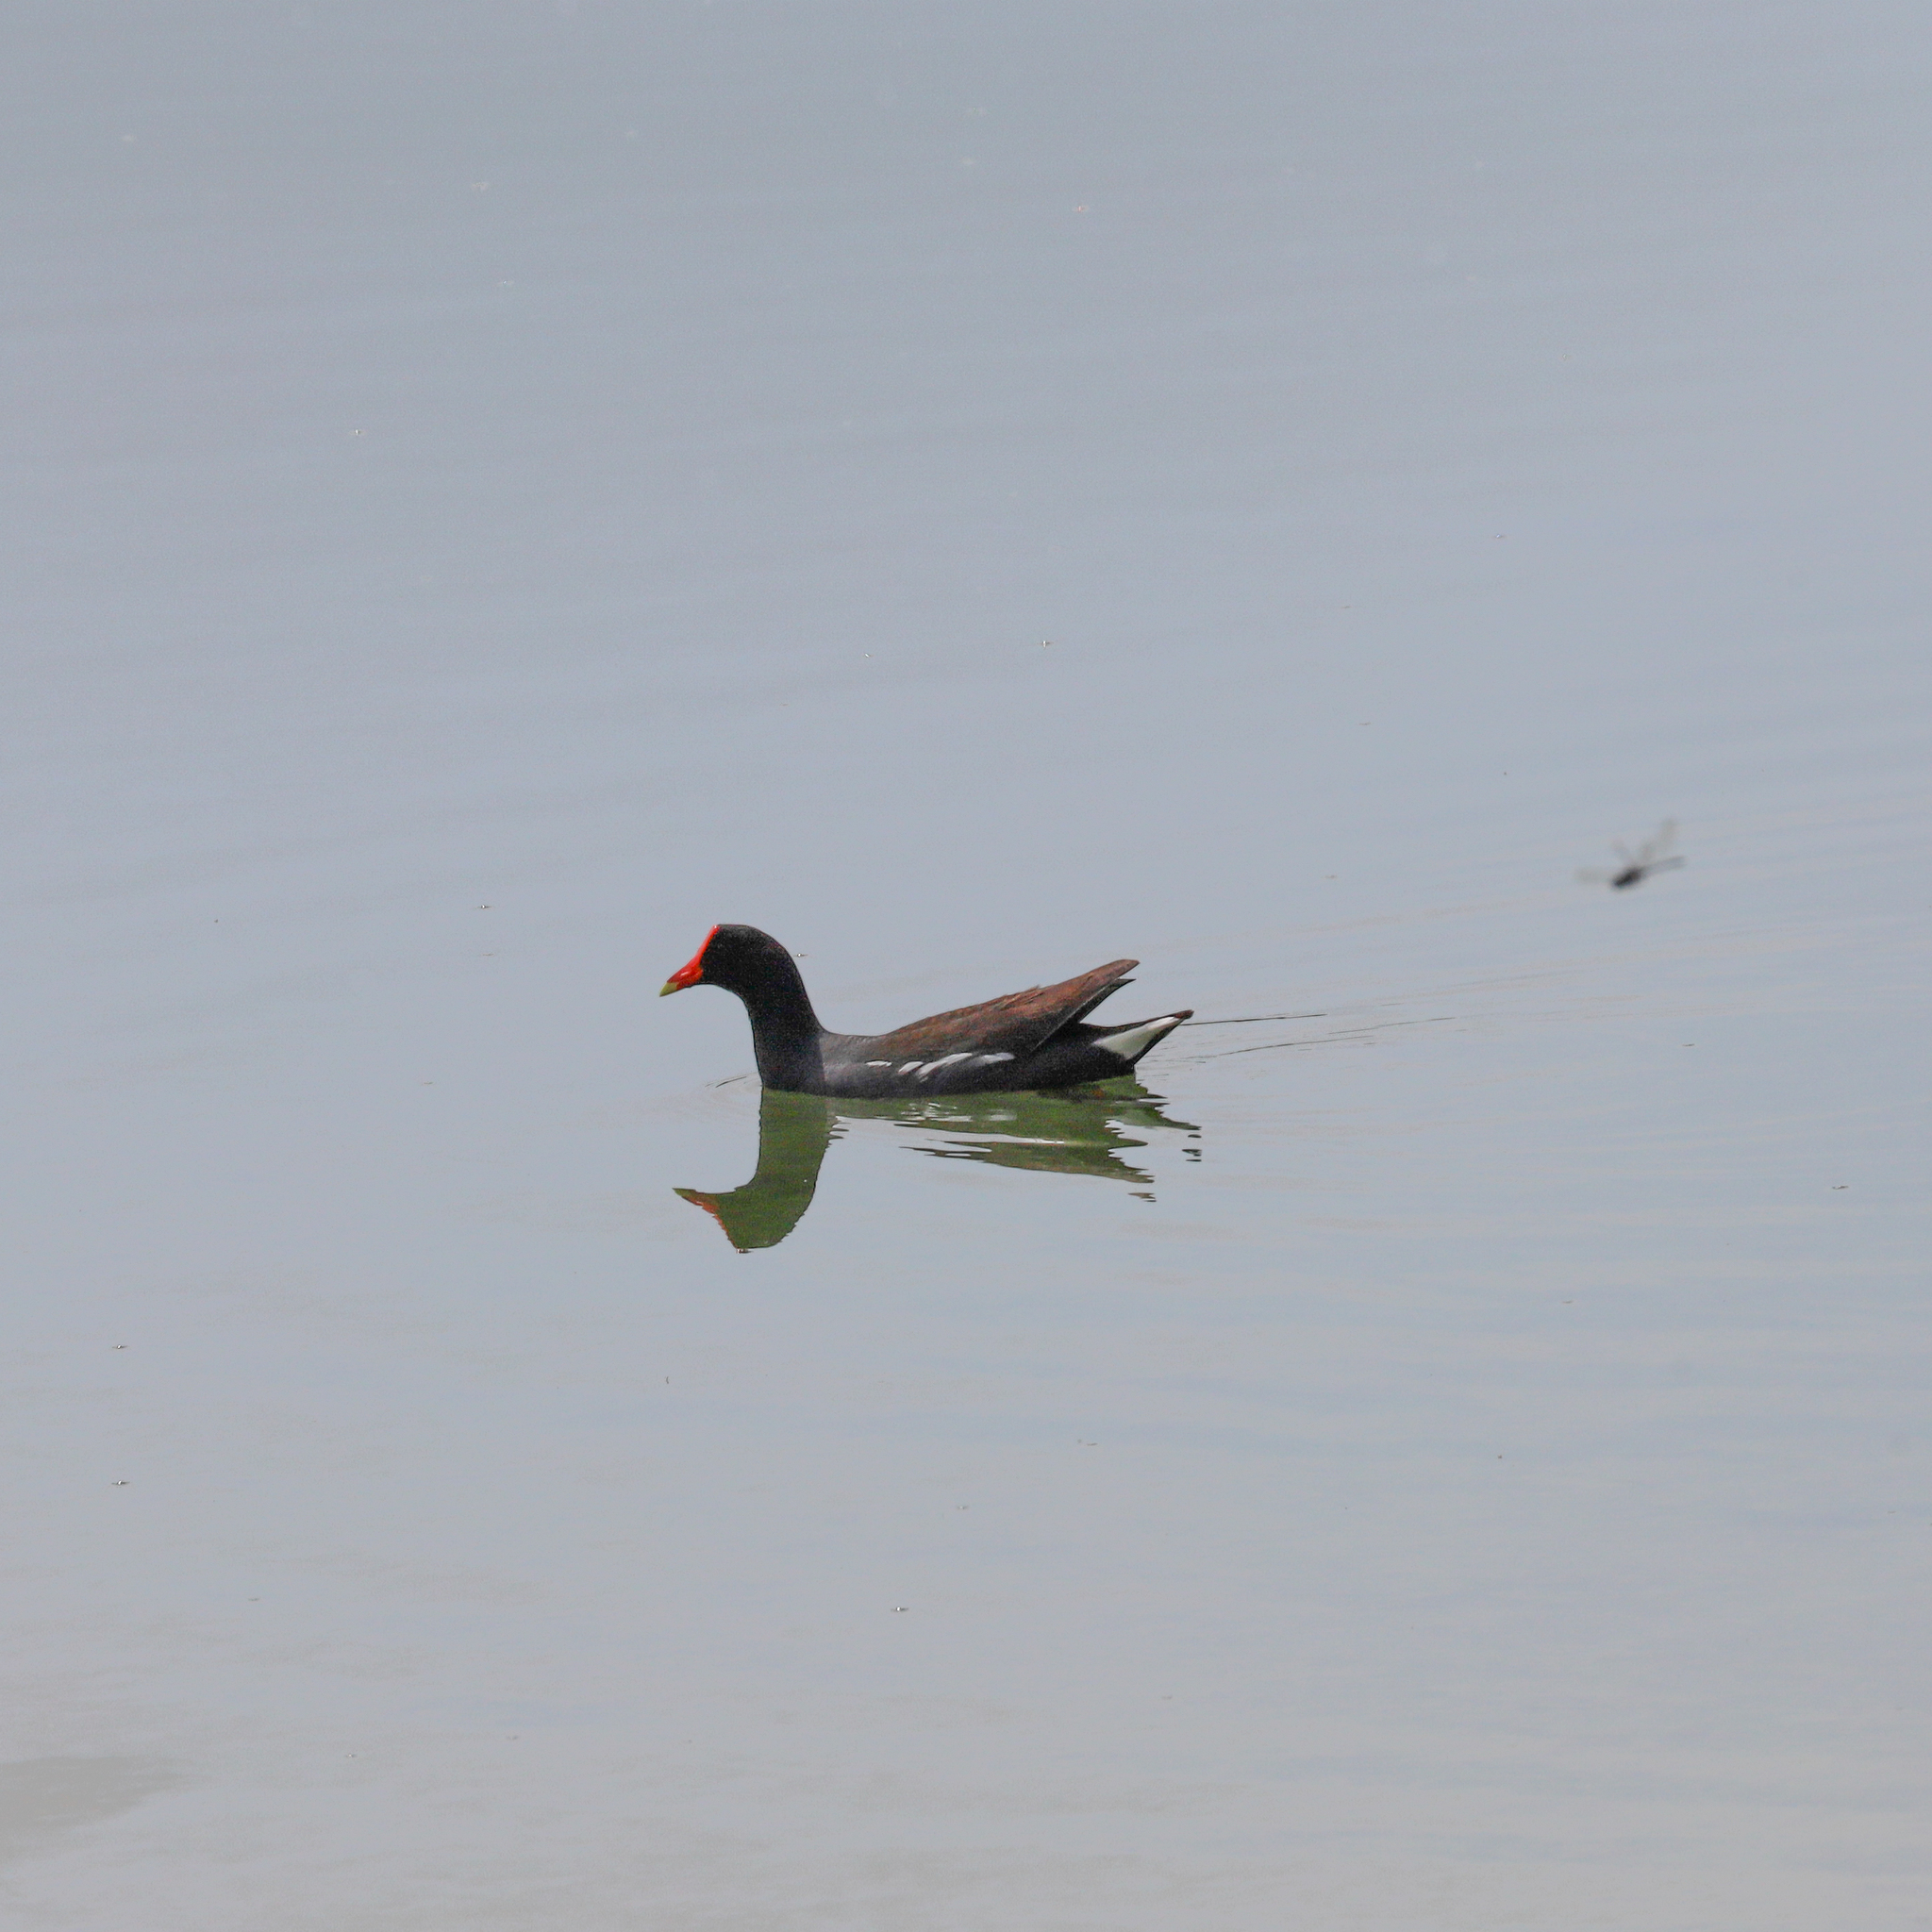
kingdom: Animalia
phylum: Chordata
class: Aves
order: Gruiformes
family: Rallidae
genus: Gallinula
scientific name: Gallinula chloropus
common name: Common moorhen
